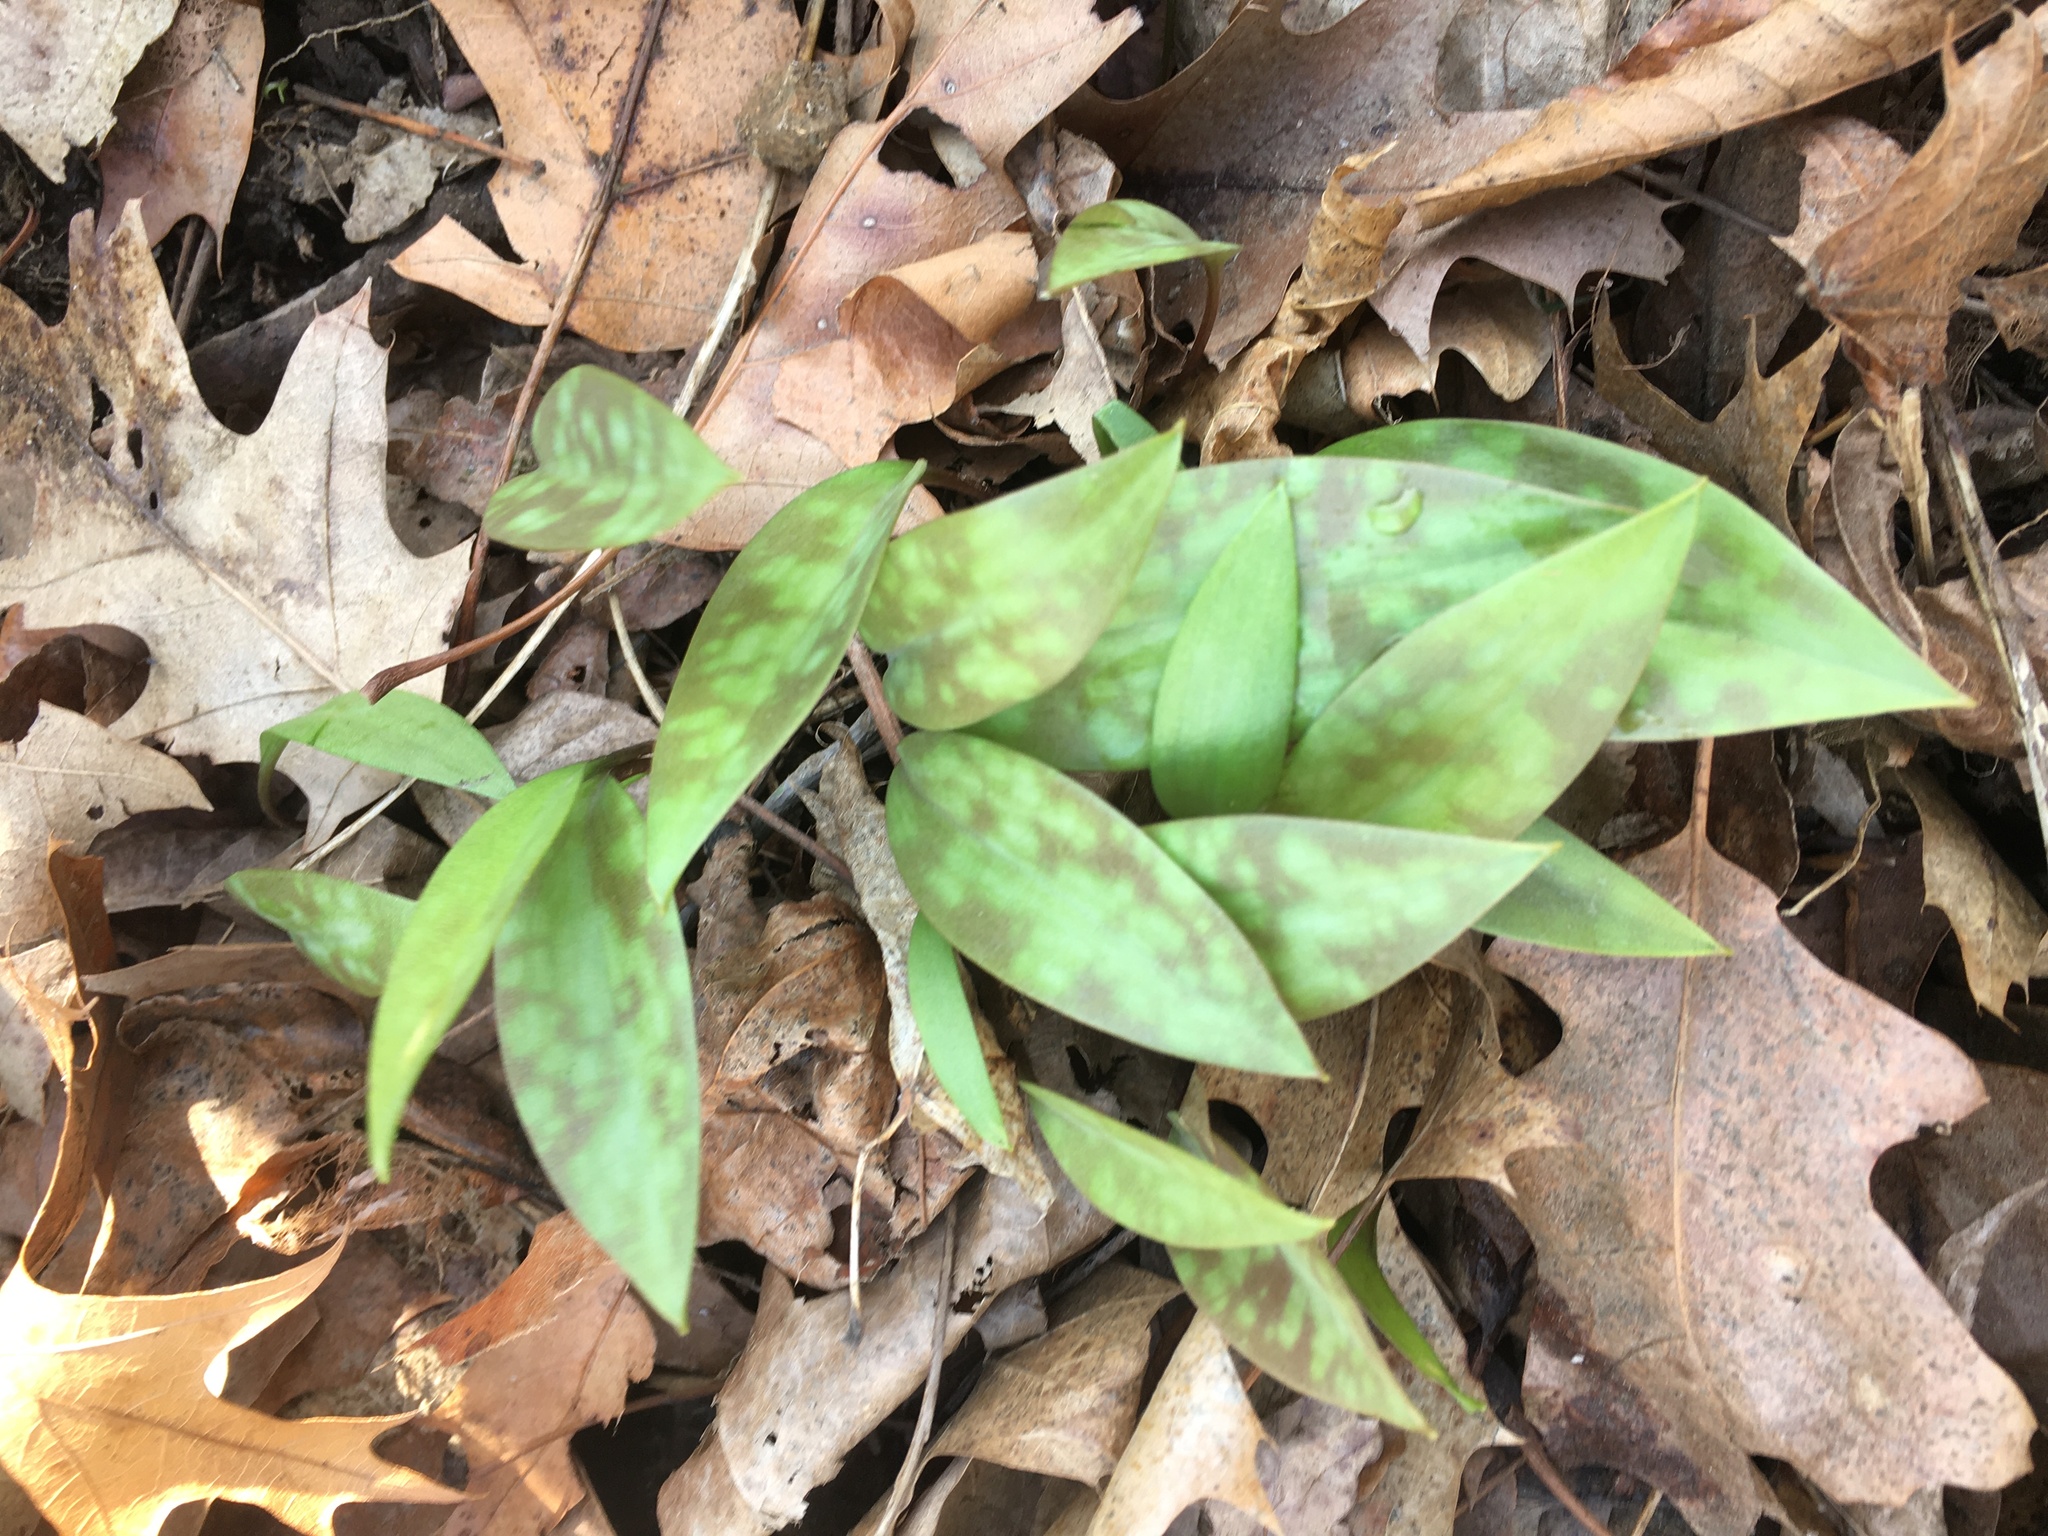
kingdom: Plantae
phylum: Tracheophyta
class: Liliopsida
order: Liliales
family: Liliaceae
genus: Erythronium
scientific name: Erythronium americanum
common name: Yellow adder's-tongue
